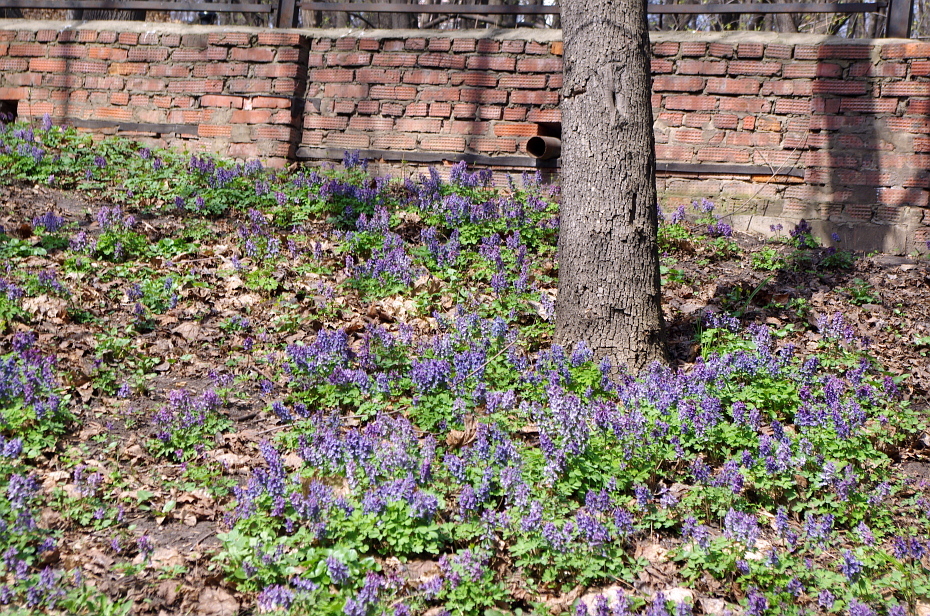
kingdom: Plantae
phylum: Tracheophyta
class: Magnoliopsida
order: Ranunculales
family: Papaveraceae
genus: Corydalis
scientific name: Corydalis solida
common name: Bird-in-a-bush
